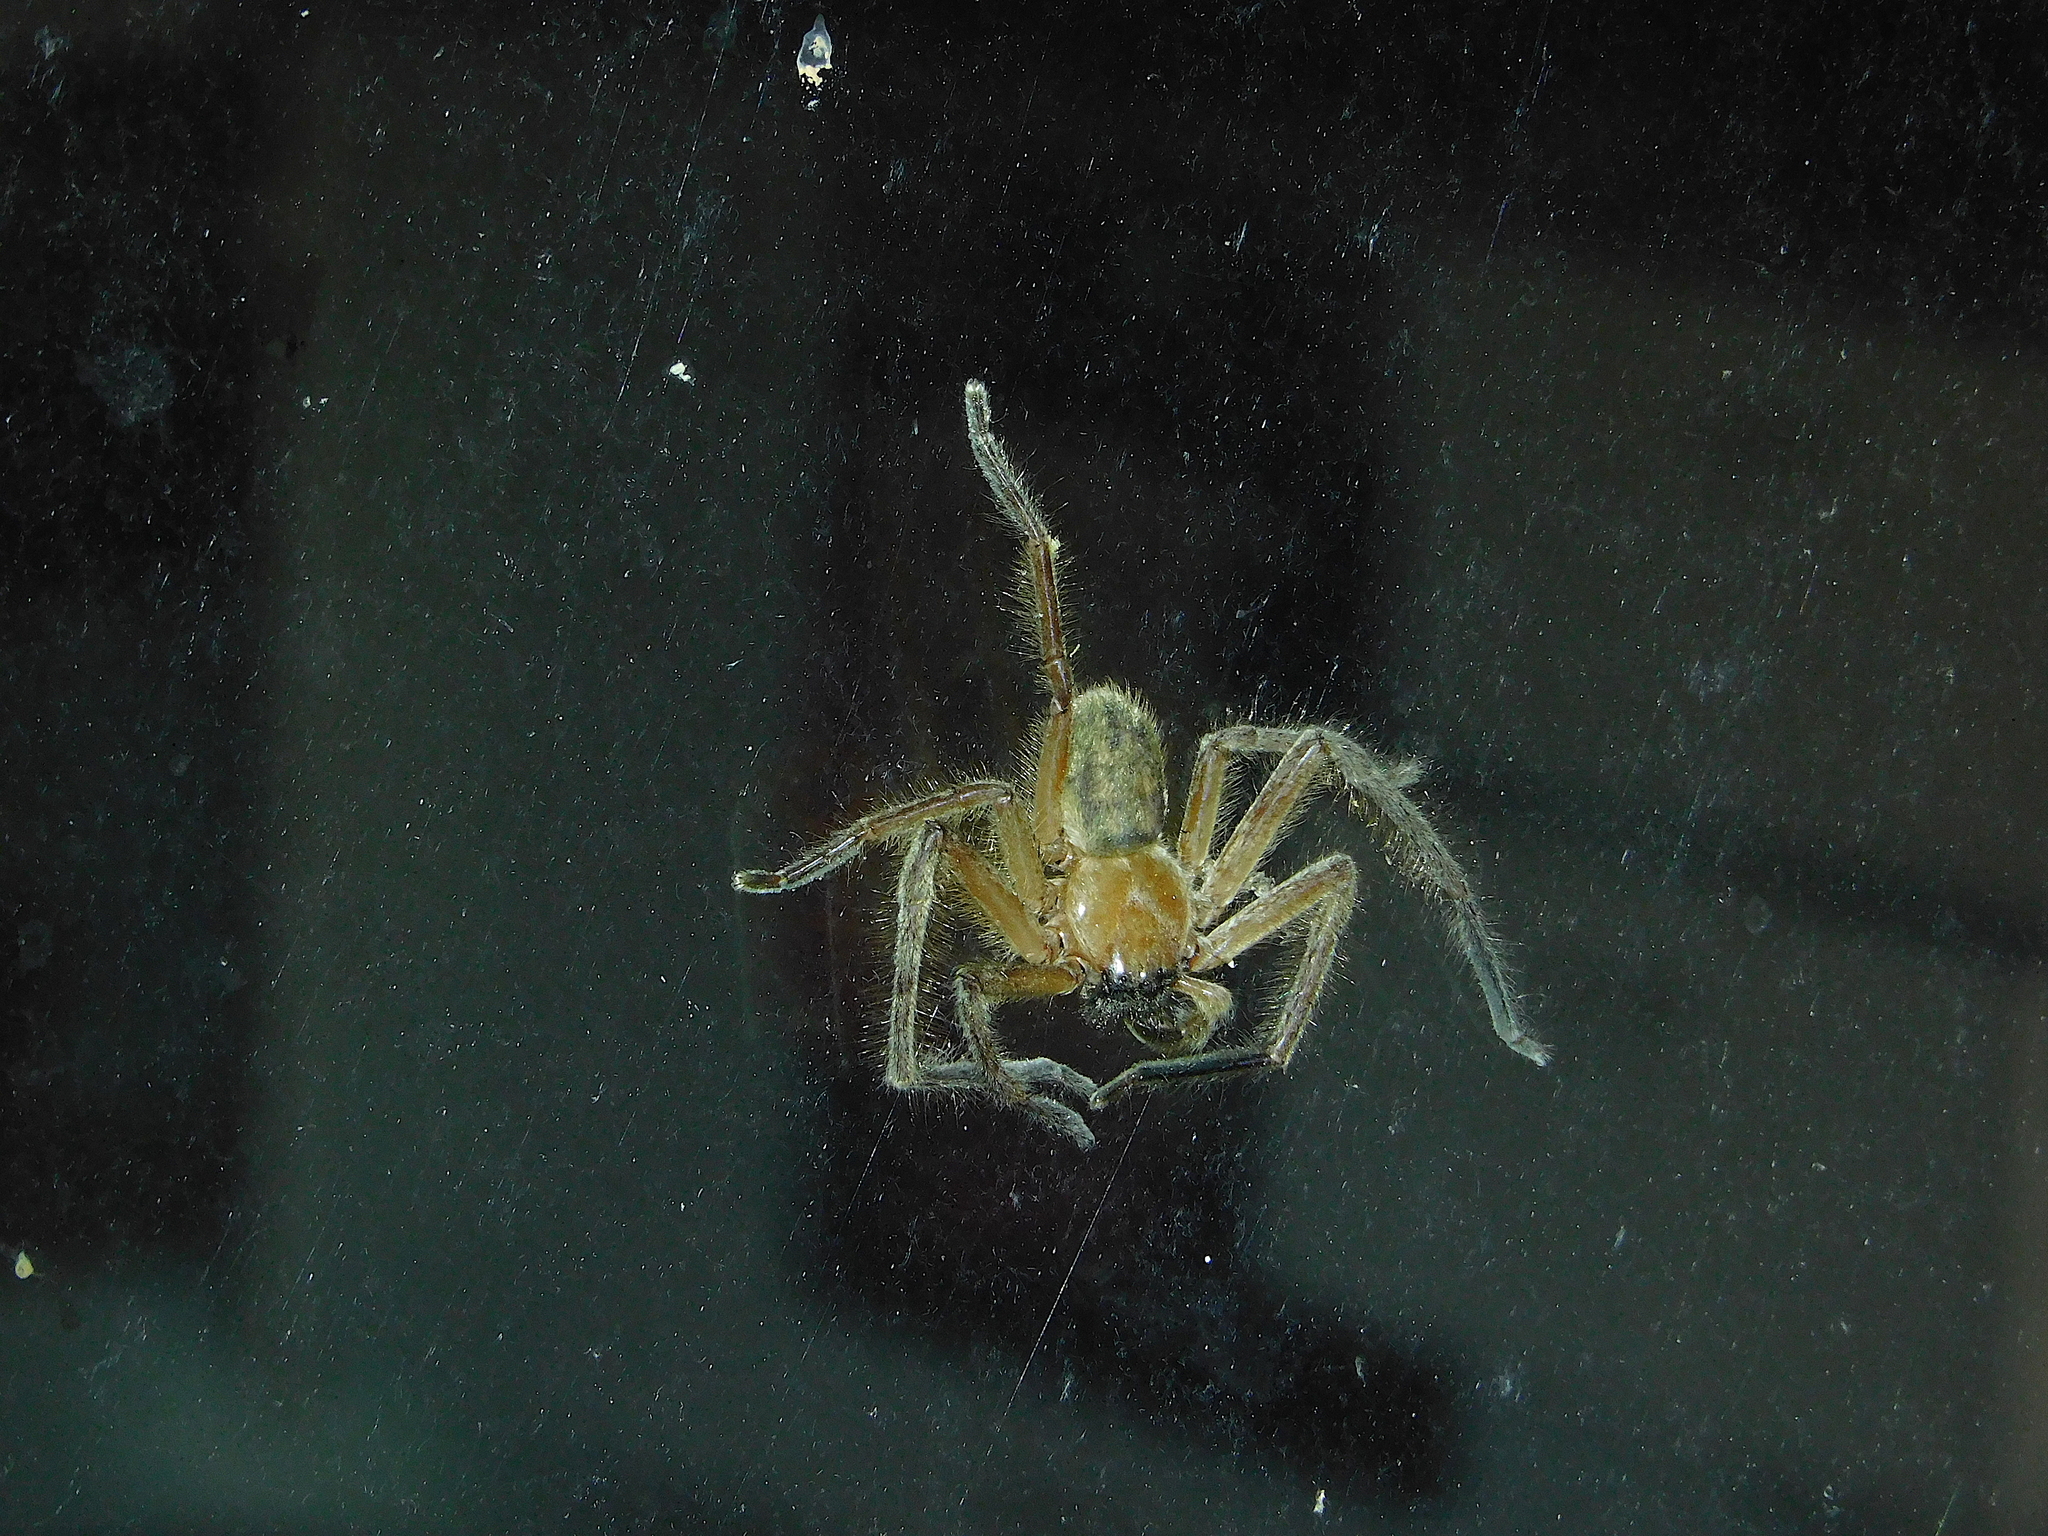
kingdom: Animalia
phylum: Arthropoda
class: Arachnida
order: Araneae
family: Sparassidae
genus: Delena
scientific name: Delena cancerides
